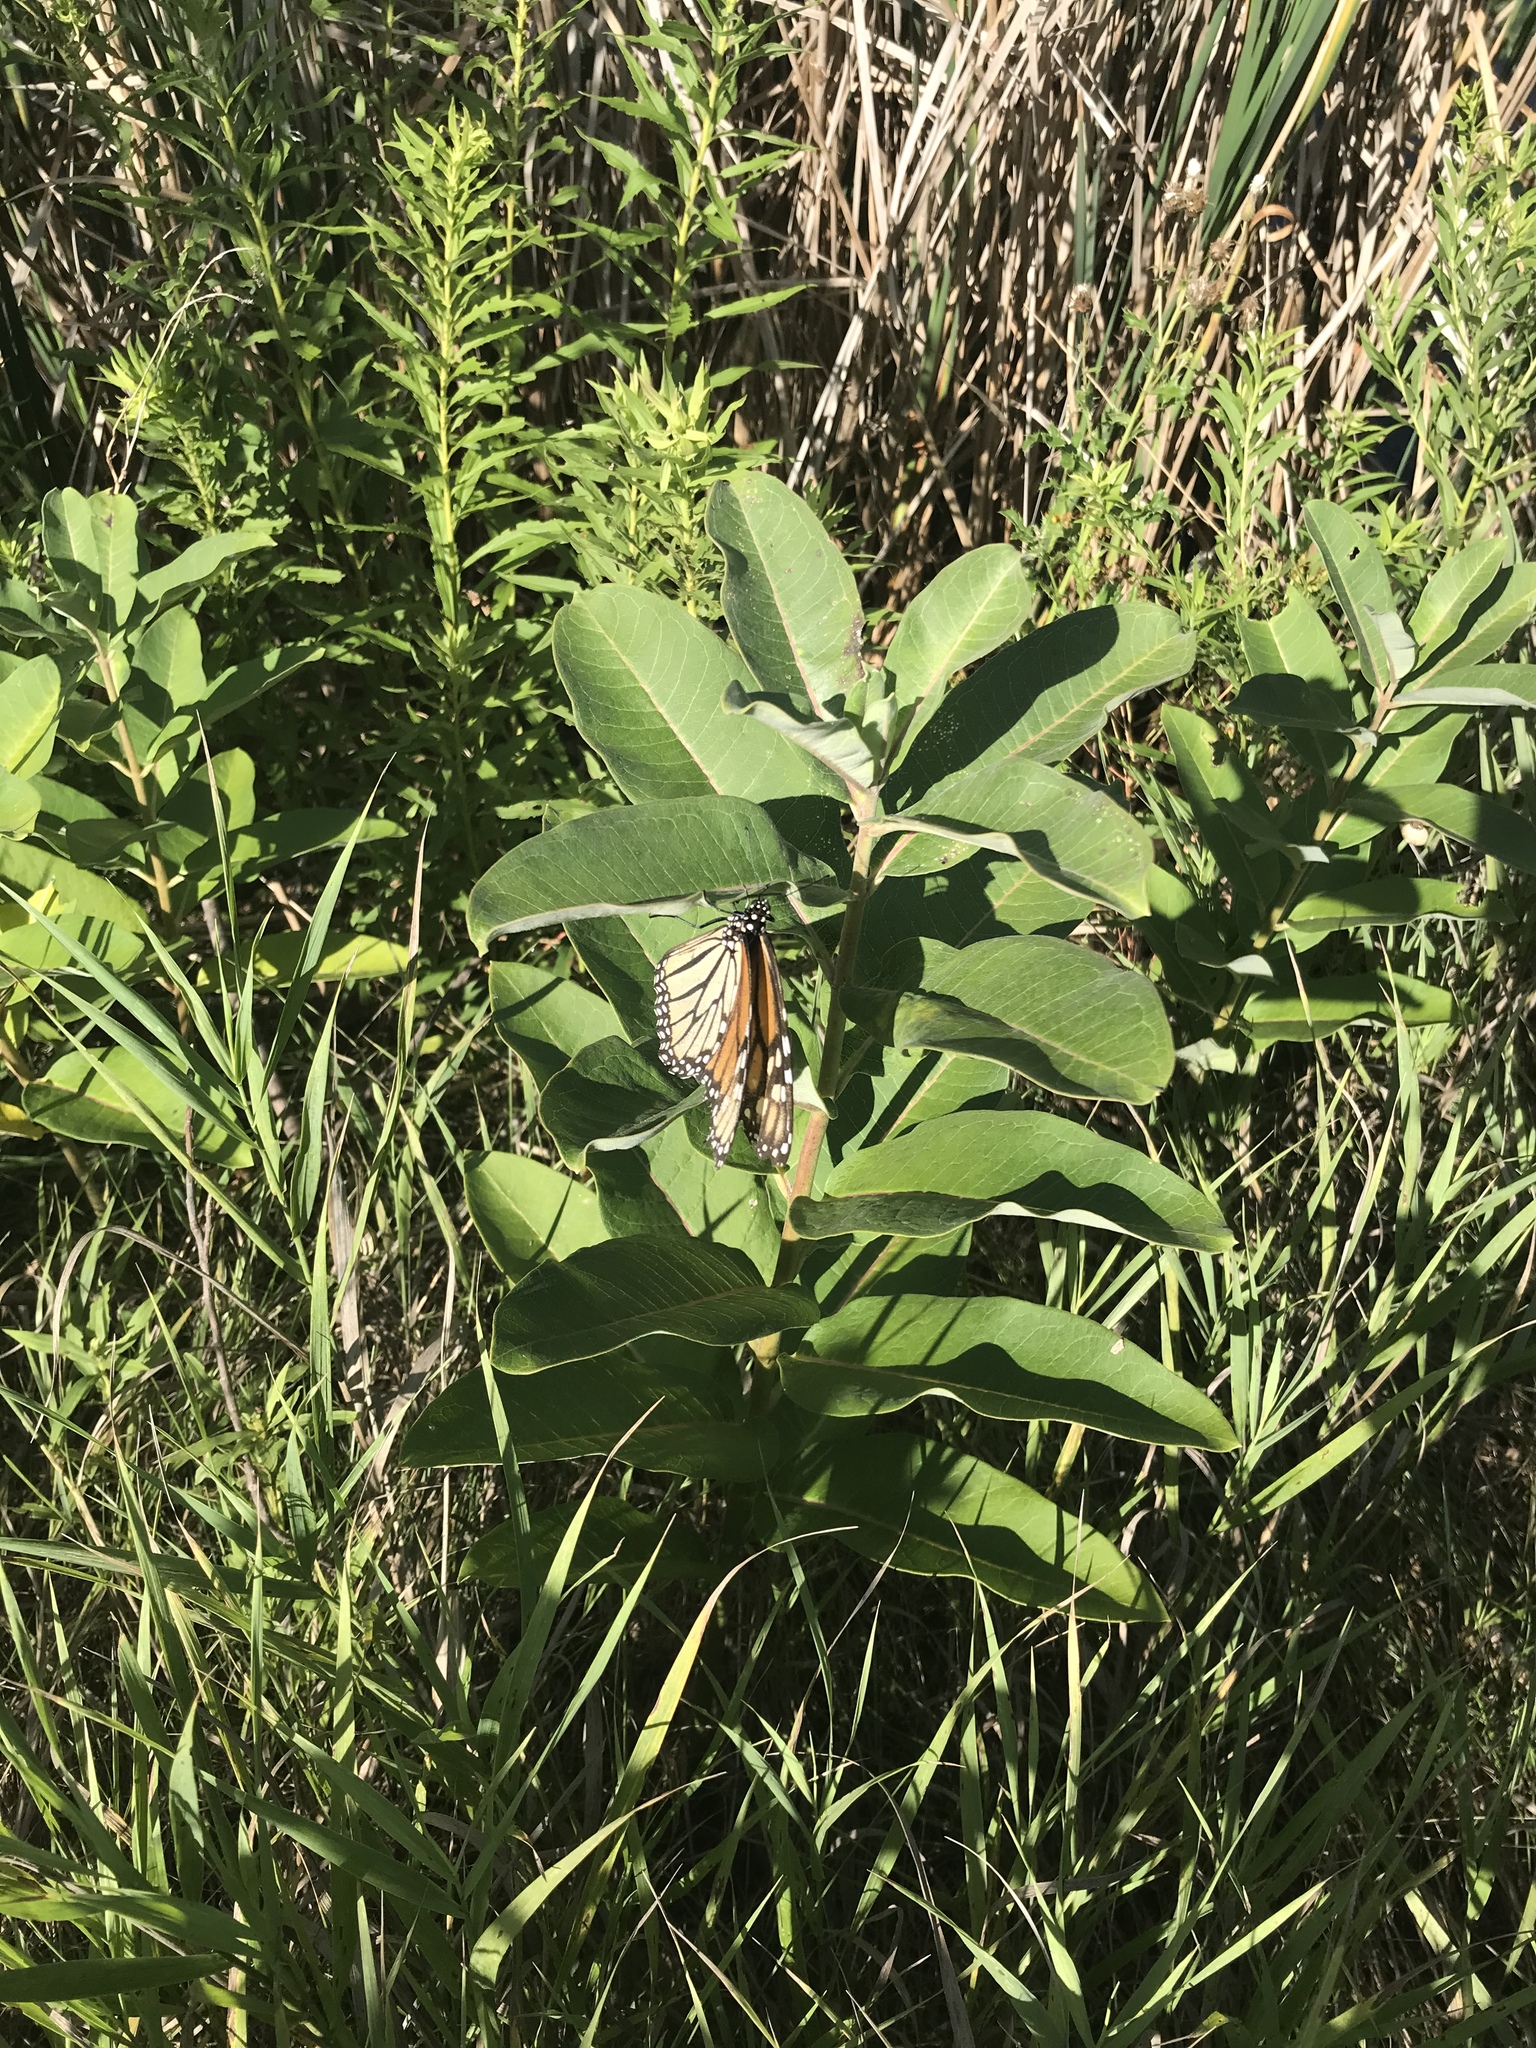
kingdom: Animalia
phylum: Arthropoda
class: Insecta
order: Lepidoptera
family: Nymphalidae
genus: Danaus
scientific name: Danaus plexippus
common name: Monarch
